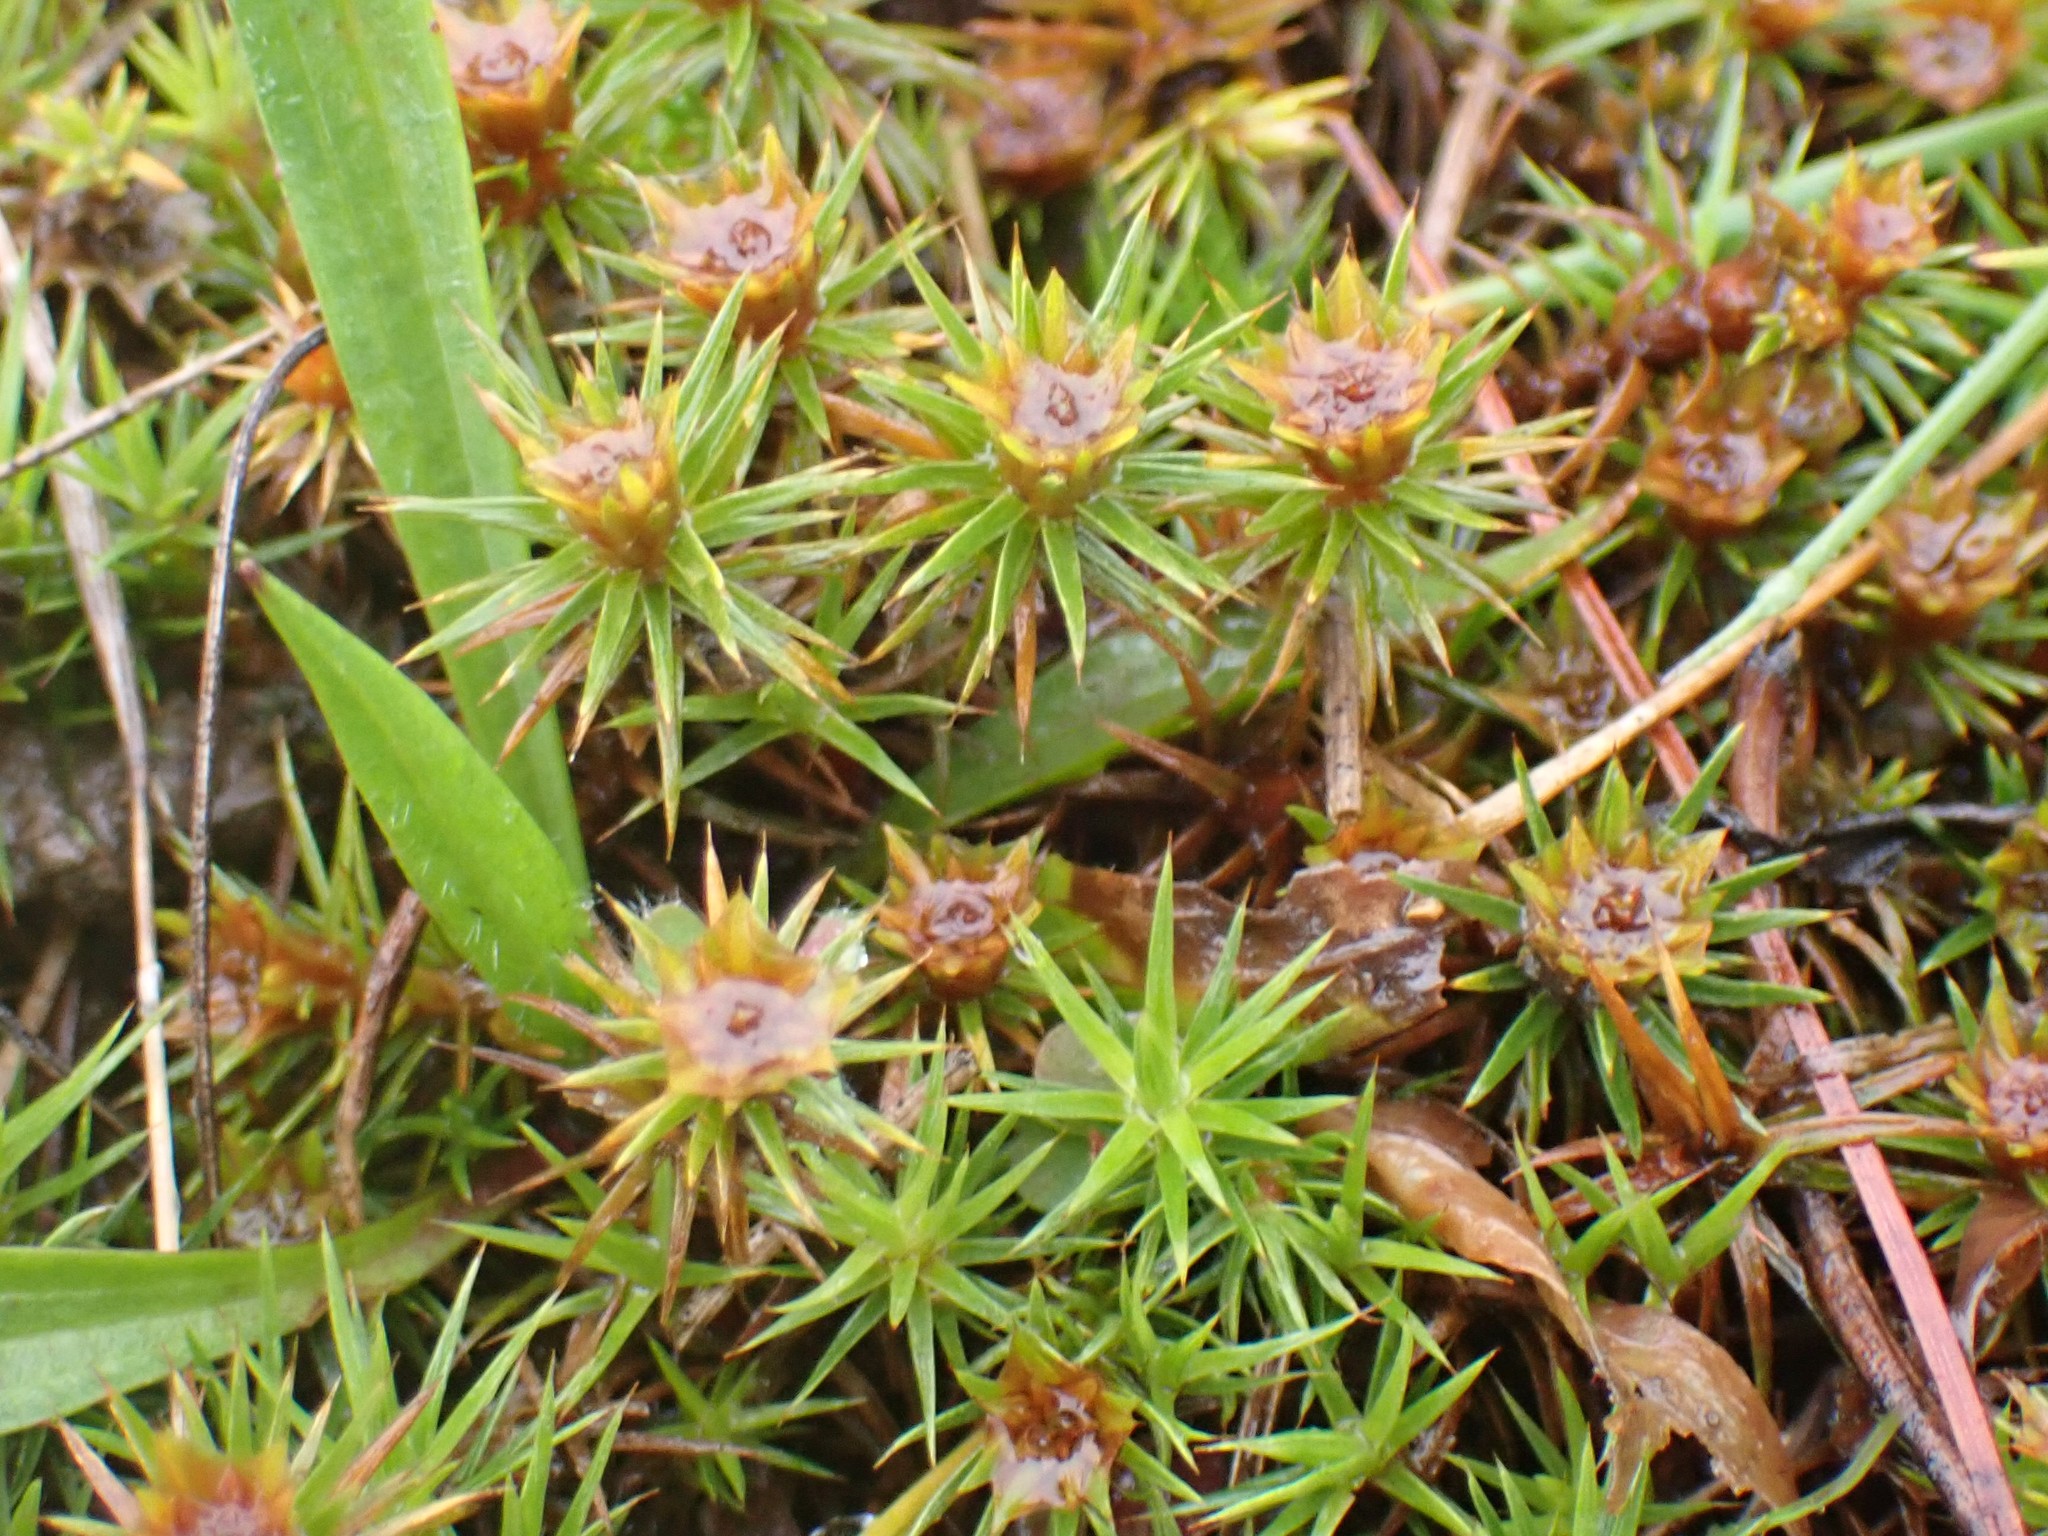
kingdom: Plantae
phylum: Bryophyta
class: Polytrichopsida
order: Polytrichales
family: Polytrichaceae
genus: Polytrichum
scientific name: Polytrichum juniperinum
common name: Juniper haircap moss
